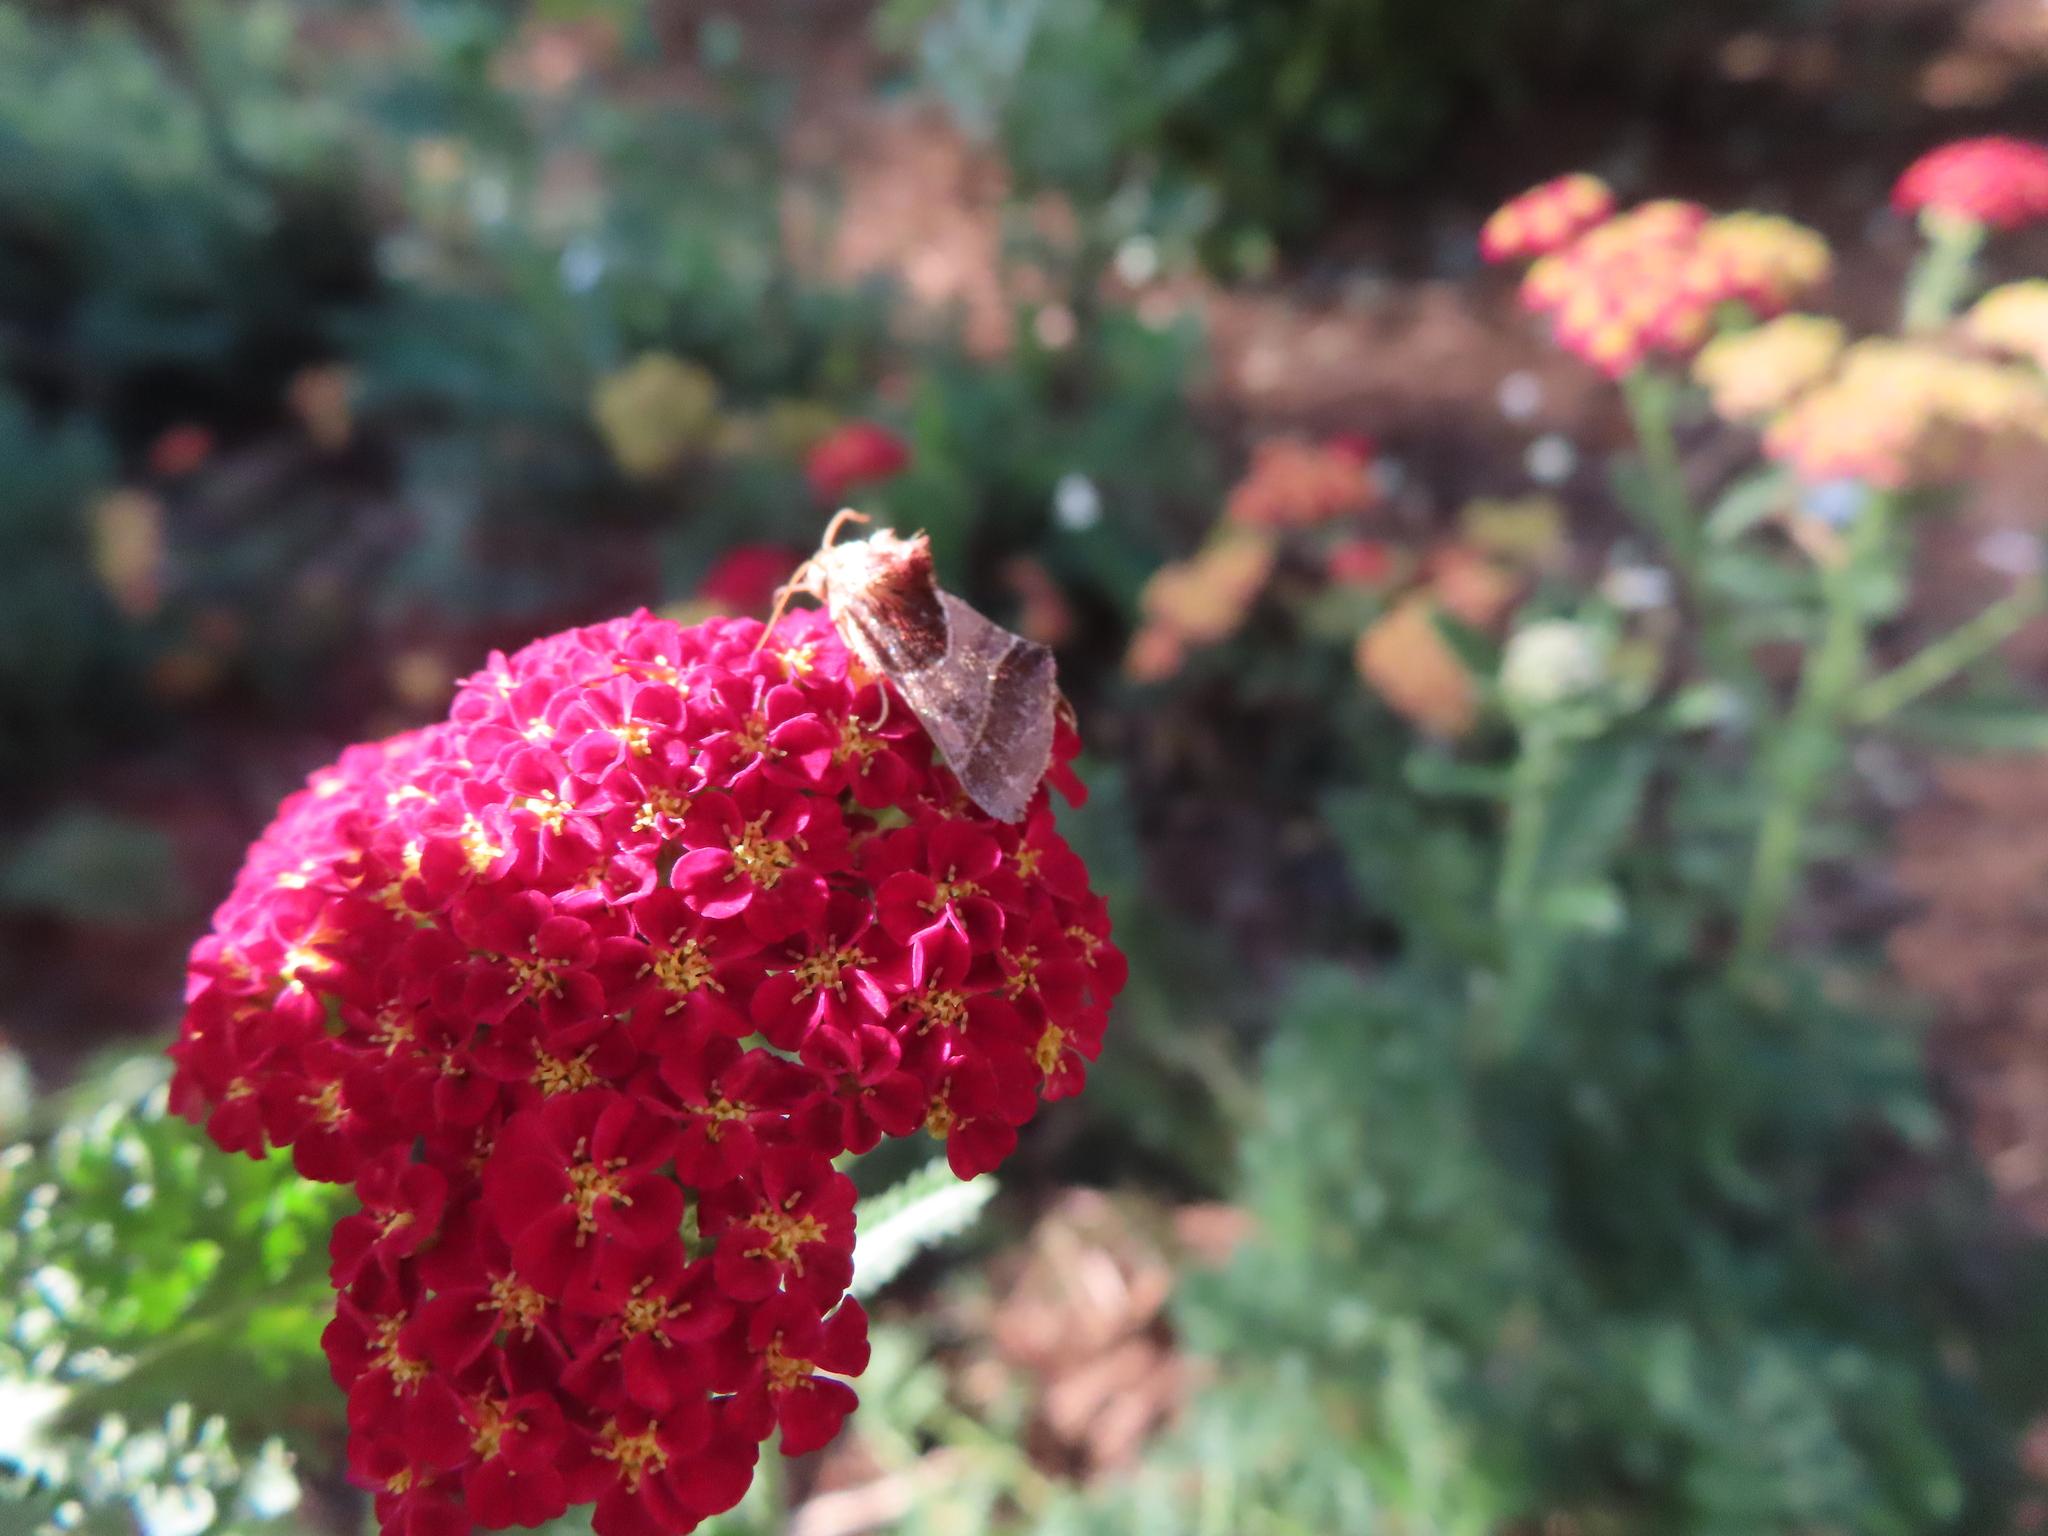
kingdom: Animalia
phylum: Arthropoda
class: Insecta
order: Lepidoptera
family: Noctuidae
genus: Schinia
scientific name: Schinia arcigera
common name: Arcigera flower moth
